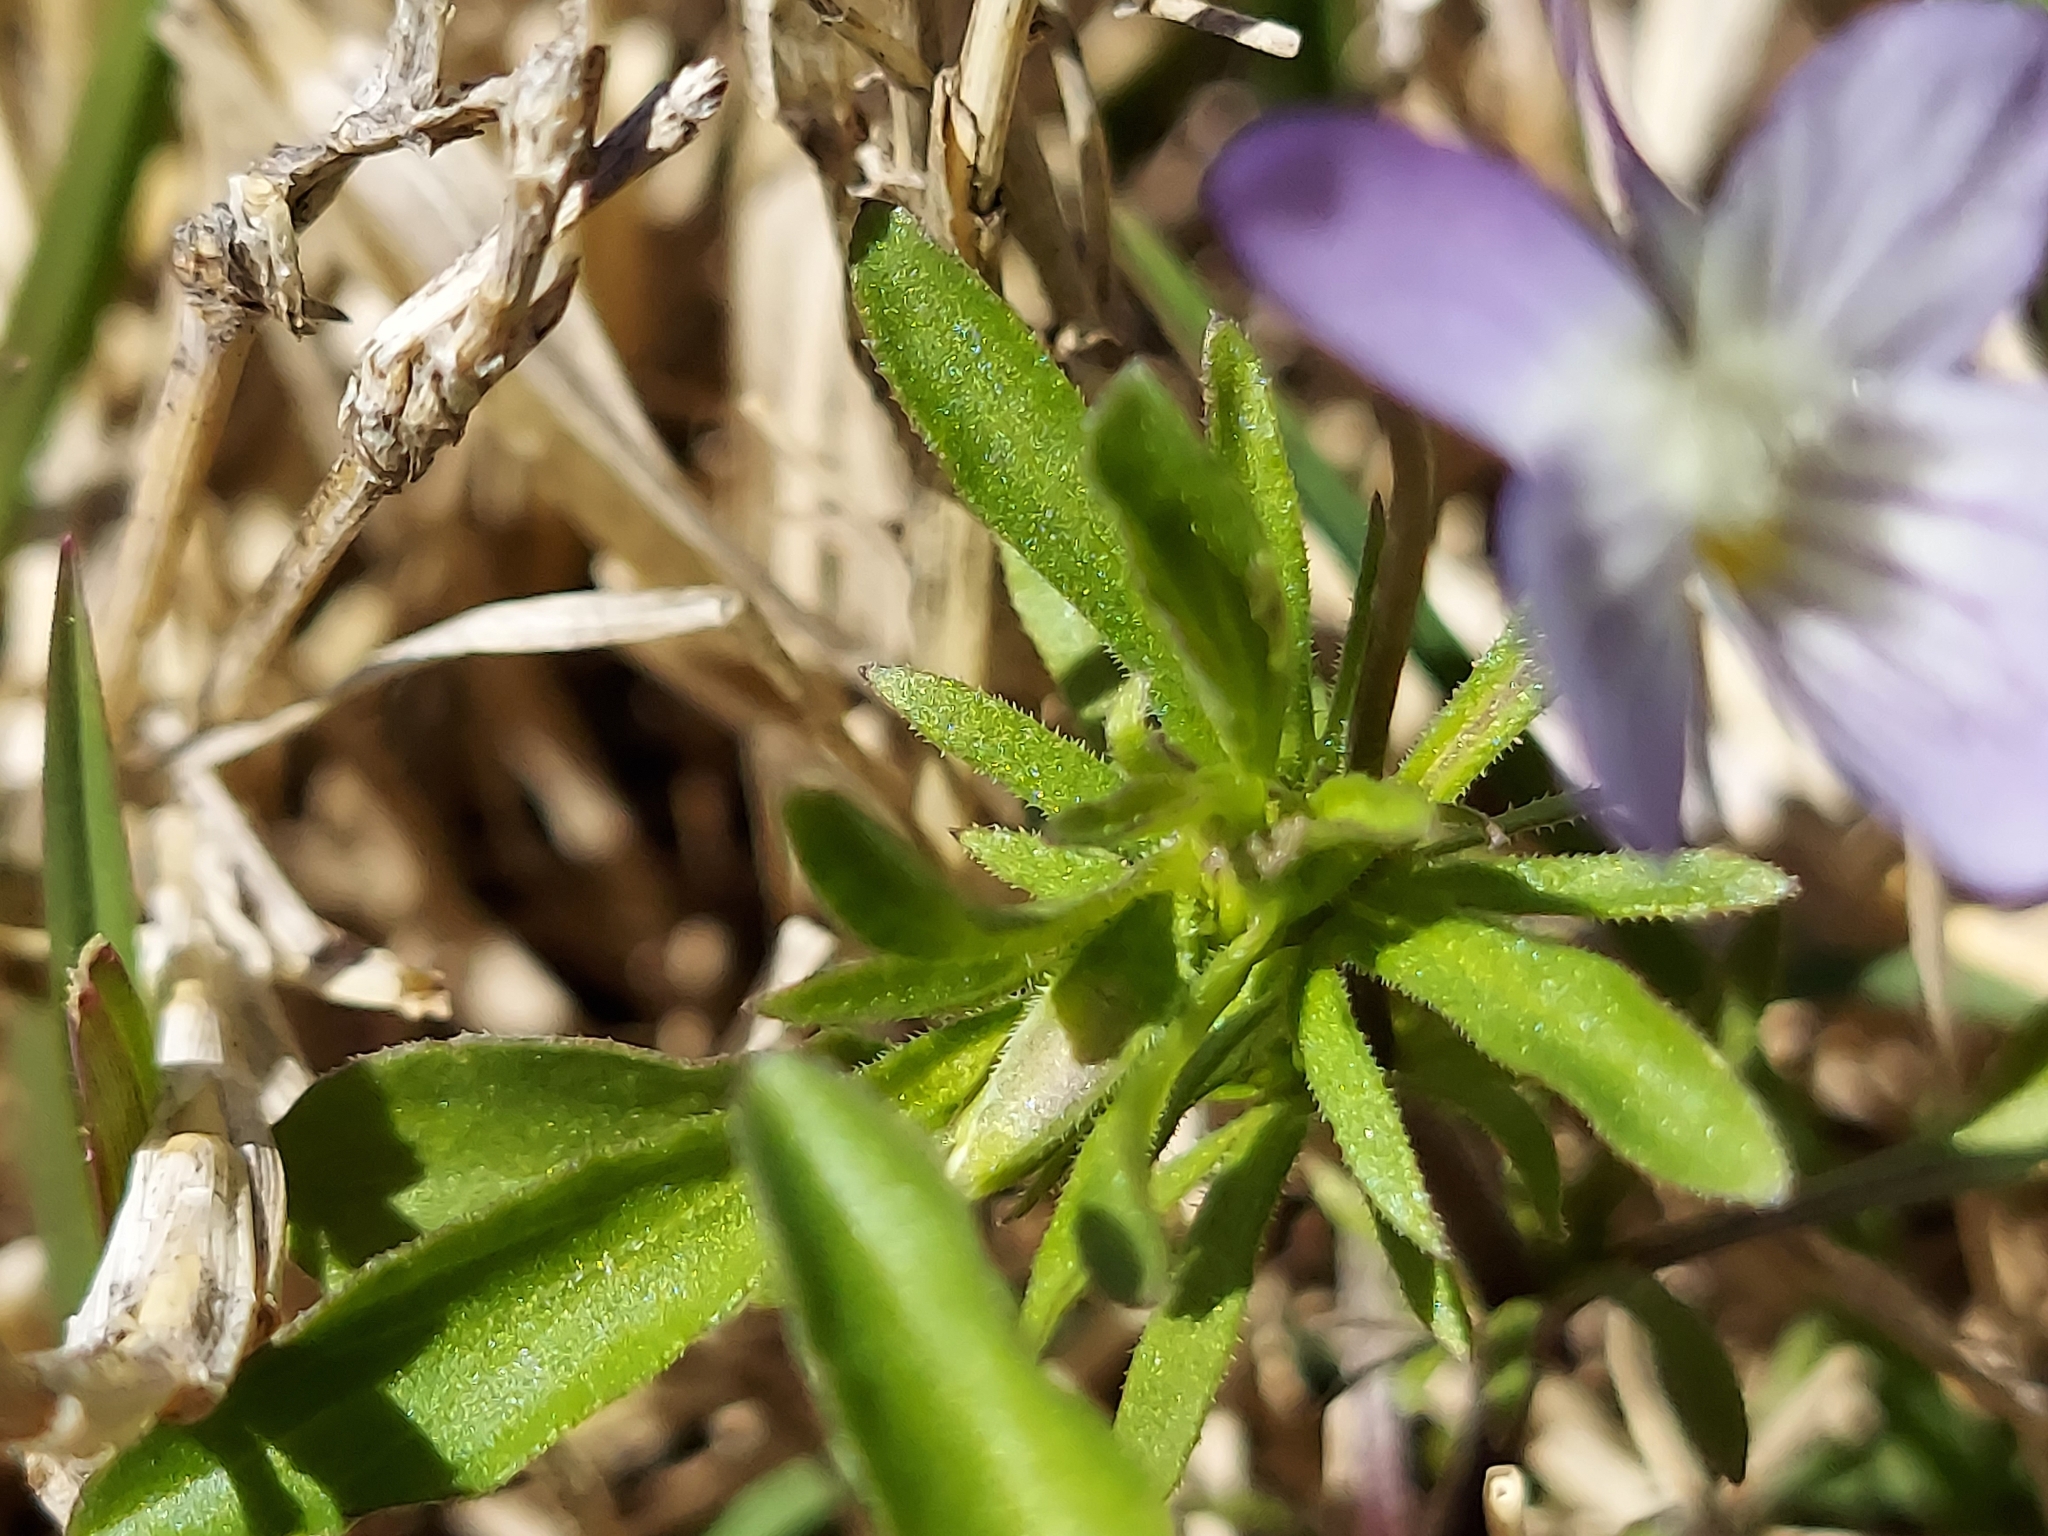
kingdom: Plantae
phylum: Tracheophyta
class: Magnoliopsida
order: Malpighiales
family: Violaceae
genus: Viola
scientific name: Viola rafinesquei
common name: American field pansy
